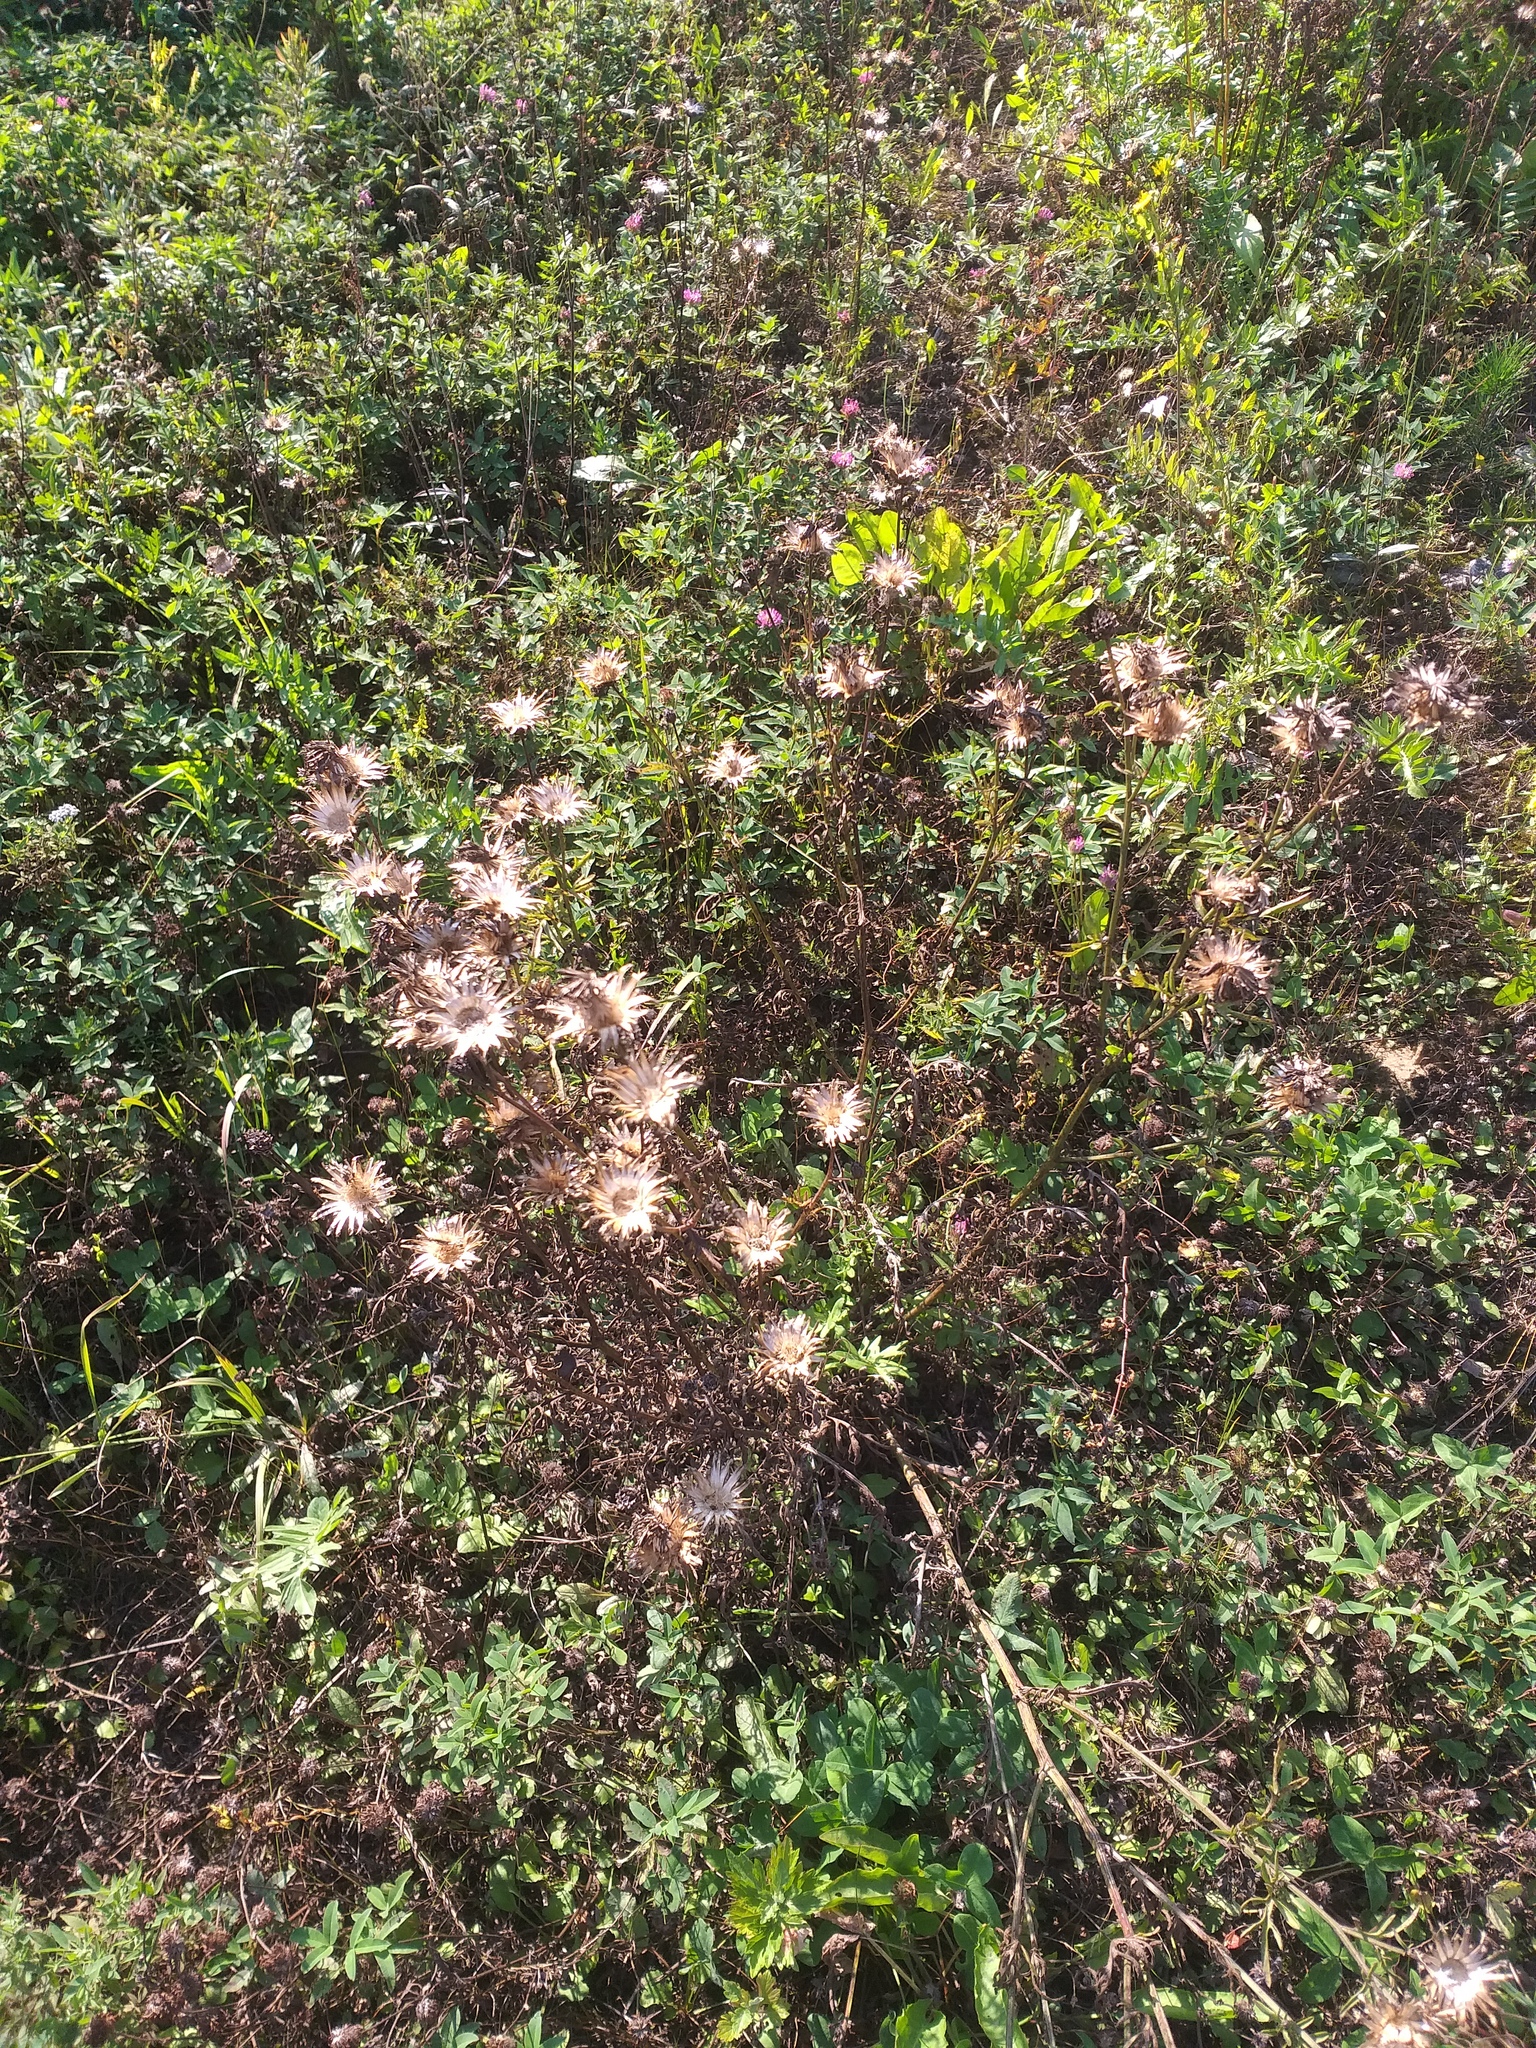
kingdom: Plantae
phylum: Tracheophyta
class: Magnoliopsida
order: Asterales
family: Asteraceae
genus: Centaurea
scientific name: Centaurea scabiosa
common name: Greater knapweed
